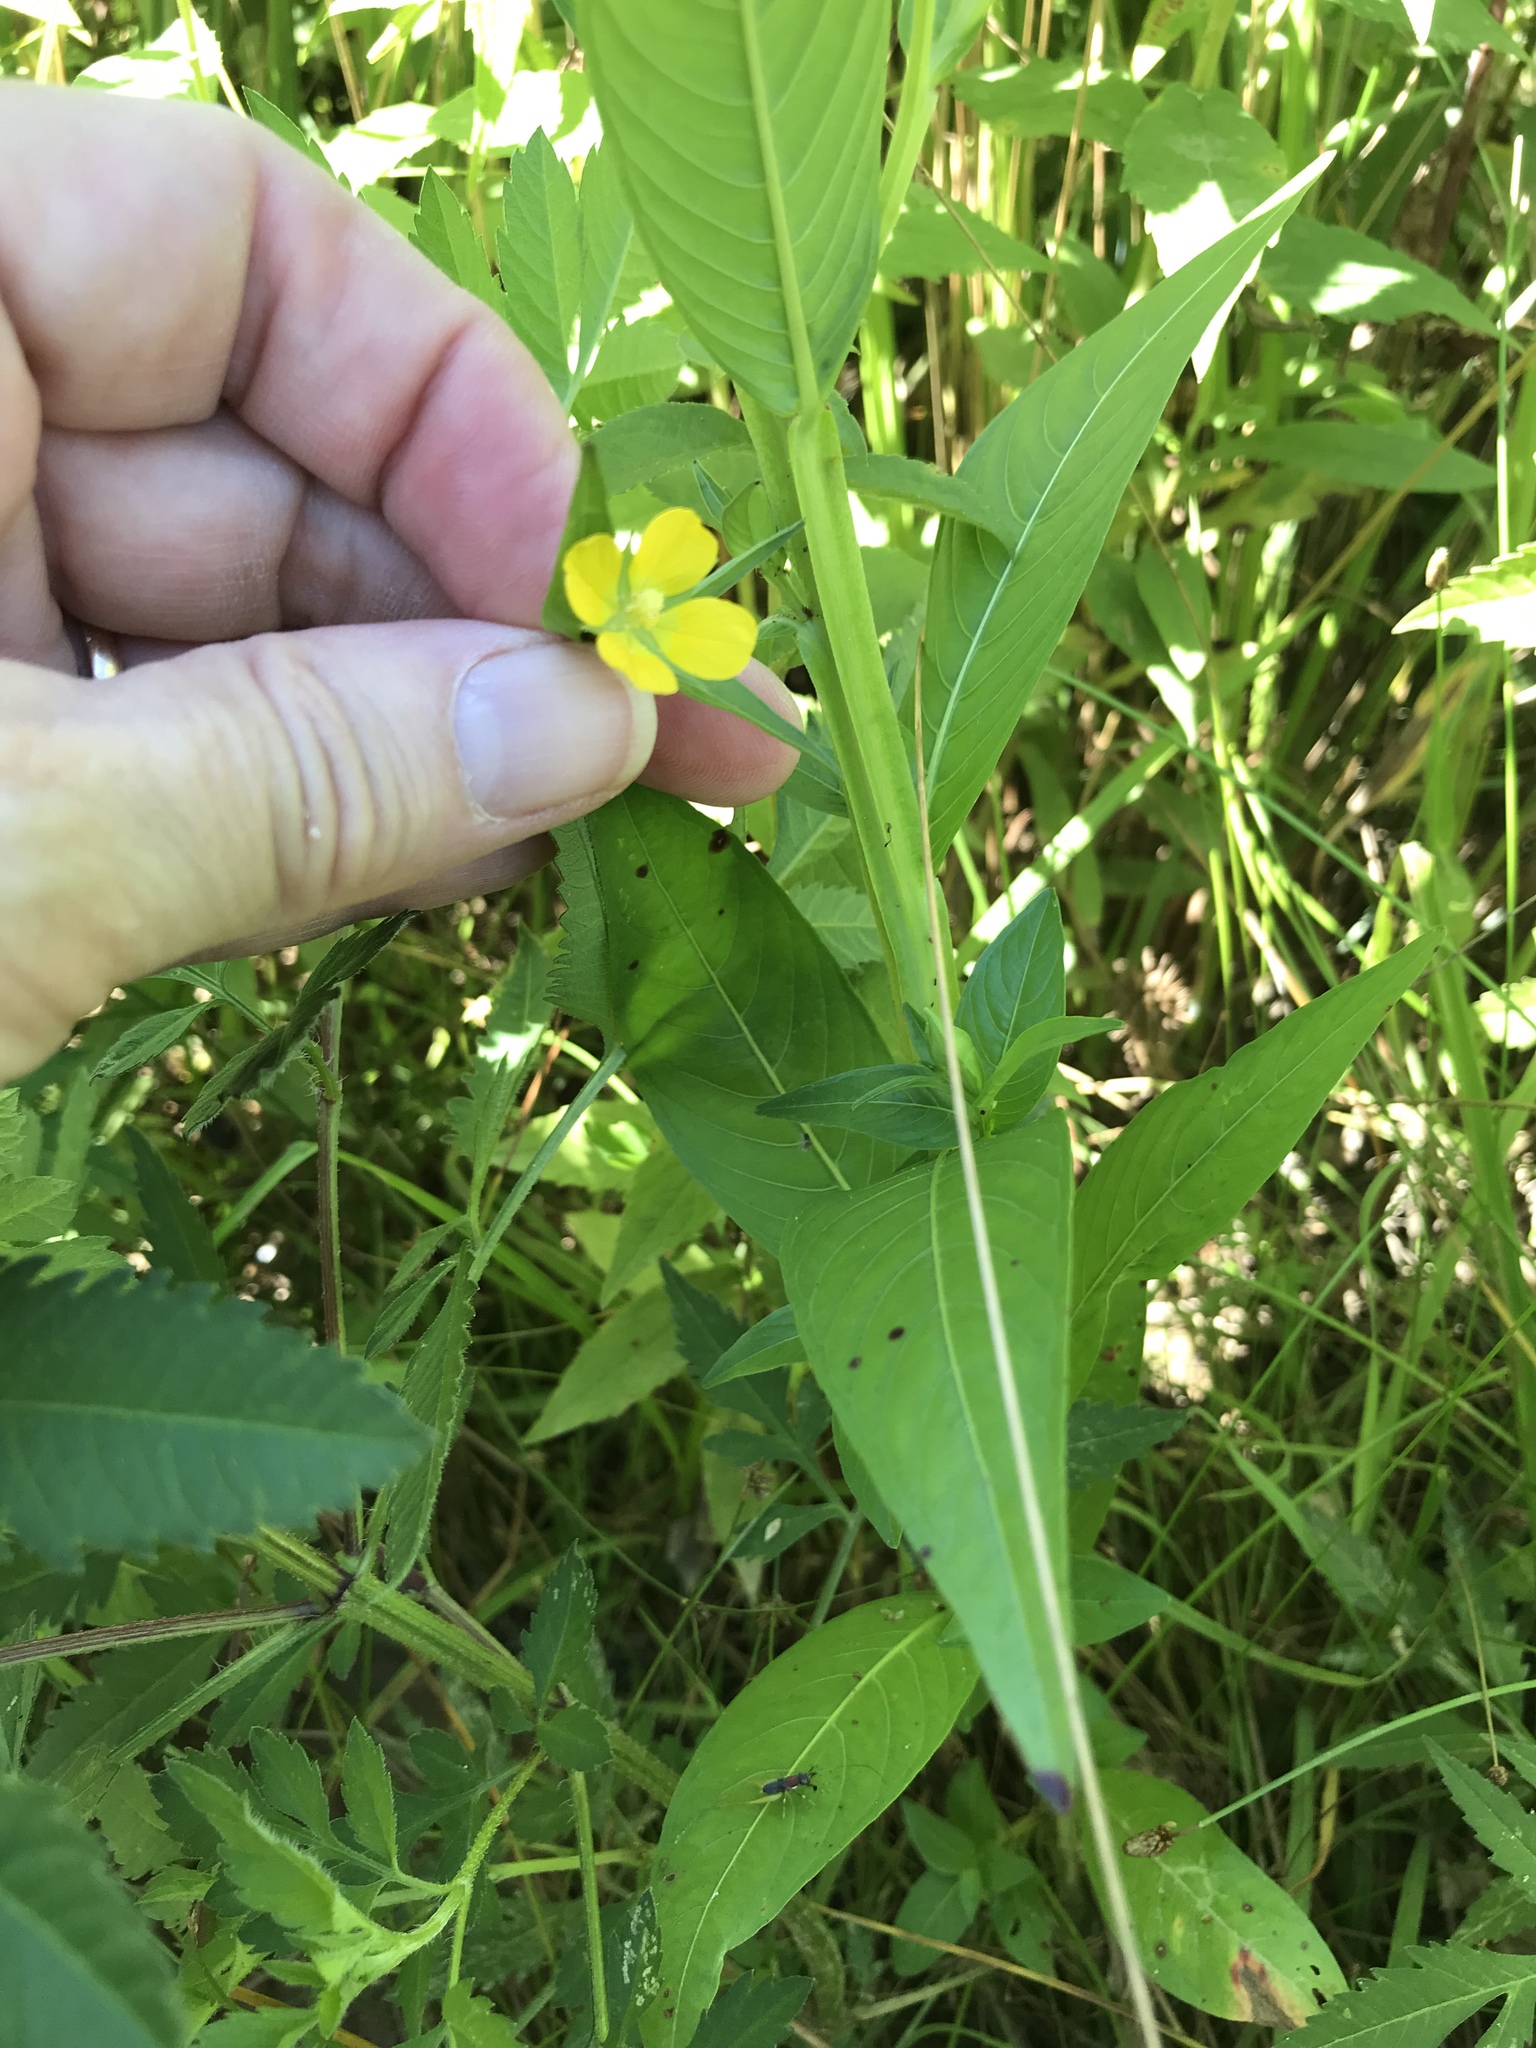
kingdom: Plantae
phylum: Tracheophyta
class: Magnoliopsida
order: Myrtales
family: Onagraceae
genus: Ludwigia
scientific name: Ludwigia decurrens
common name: Winged water-primrose
